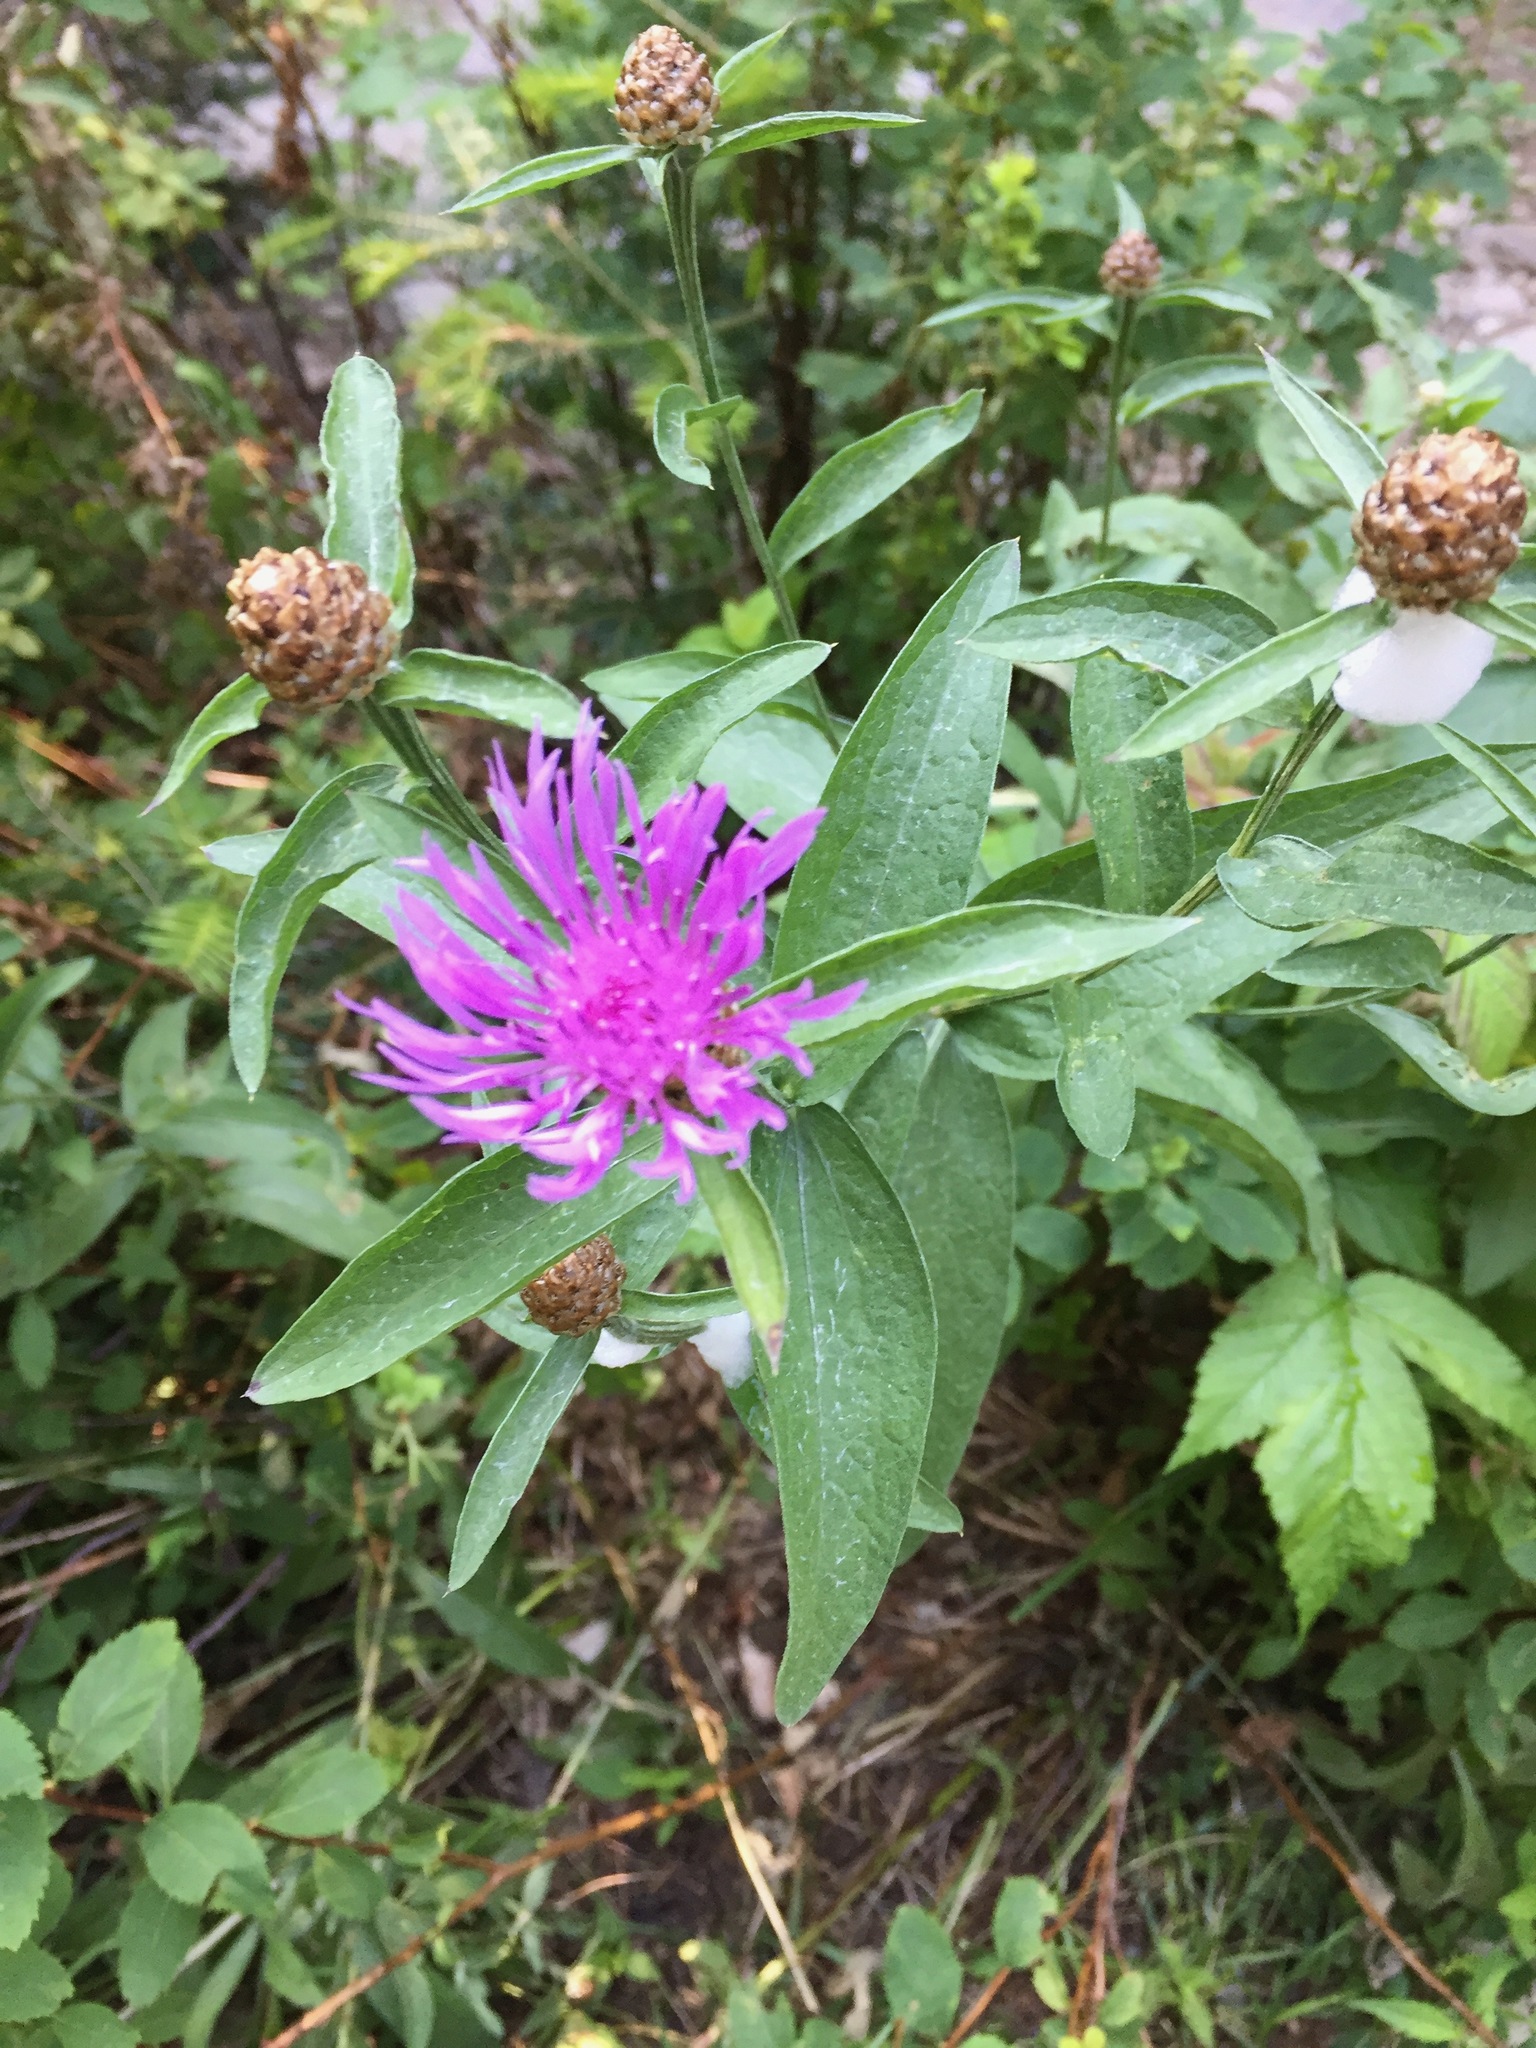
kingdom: Plantae
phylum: Tracheophyta
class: Magnoliopsida
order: Asterales
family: Asteraceae
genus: Centaurea
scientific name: Centaurea jacea
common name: Brown knapweed
